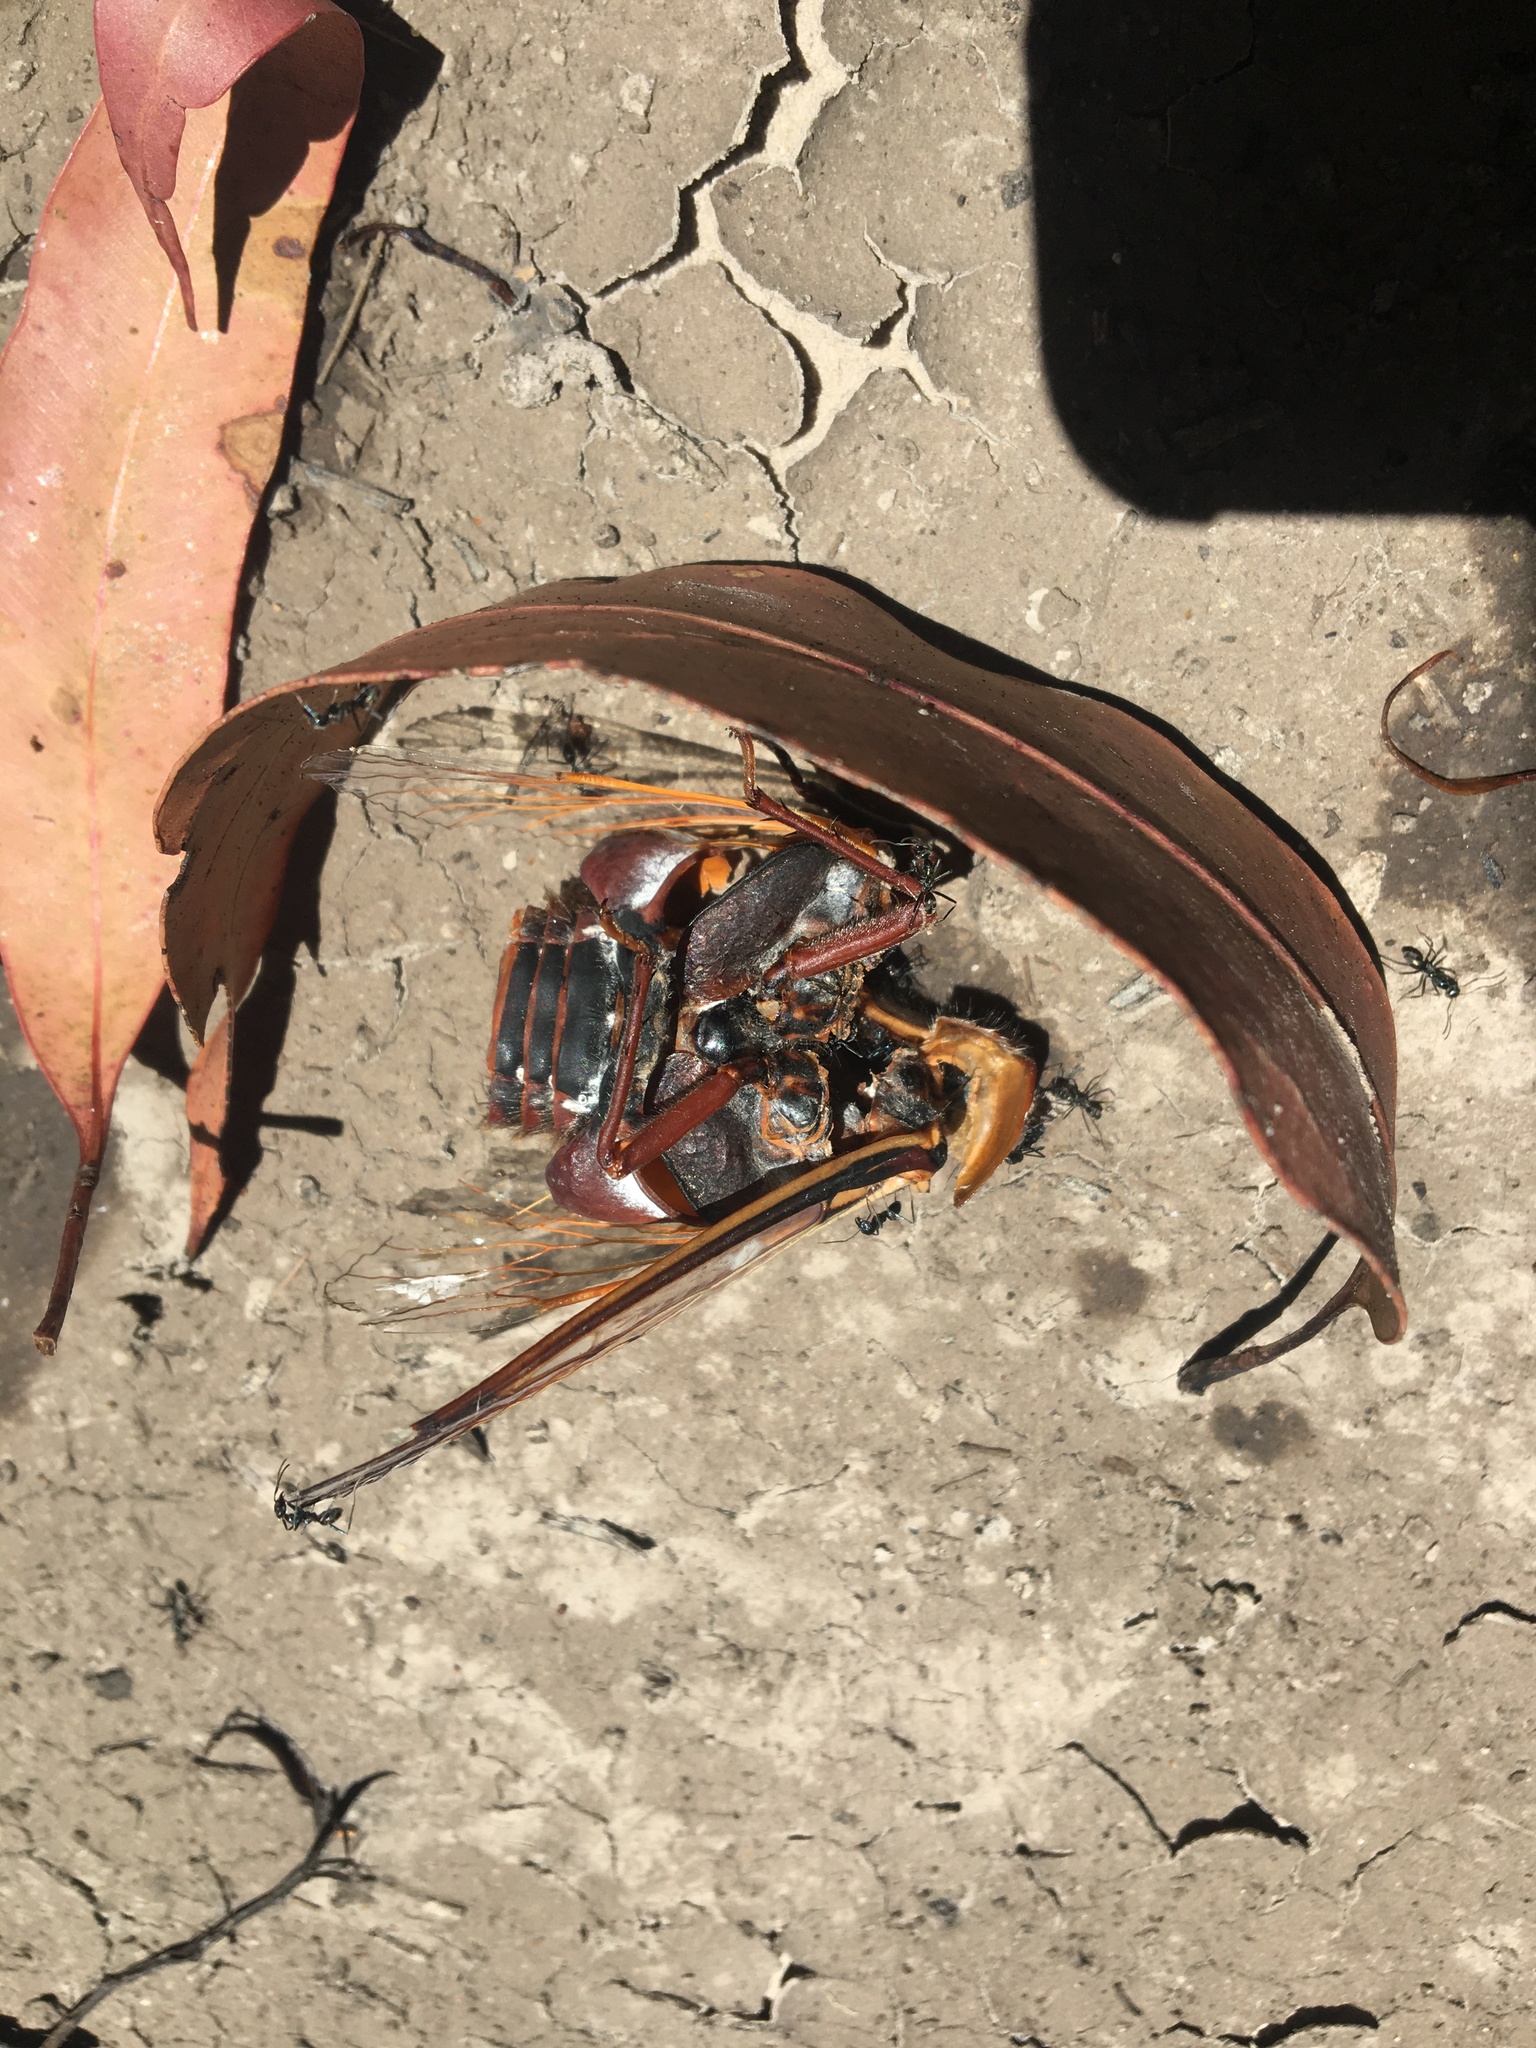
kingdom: Animalia
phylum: Arthropoda
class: Insecta
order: Hemiptera
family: Cicadidae
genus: Thopha
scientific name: Thopha saccata
